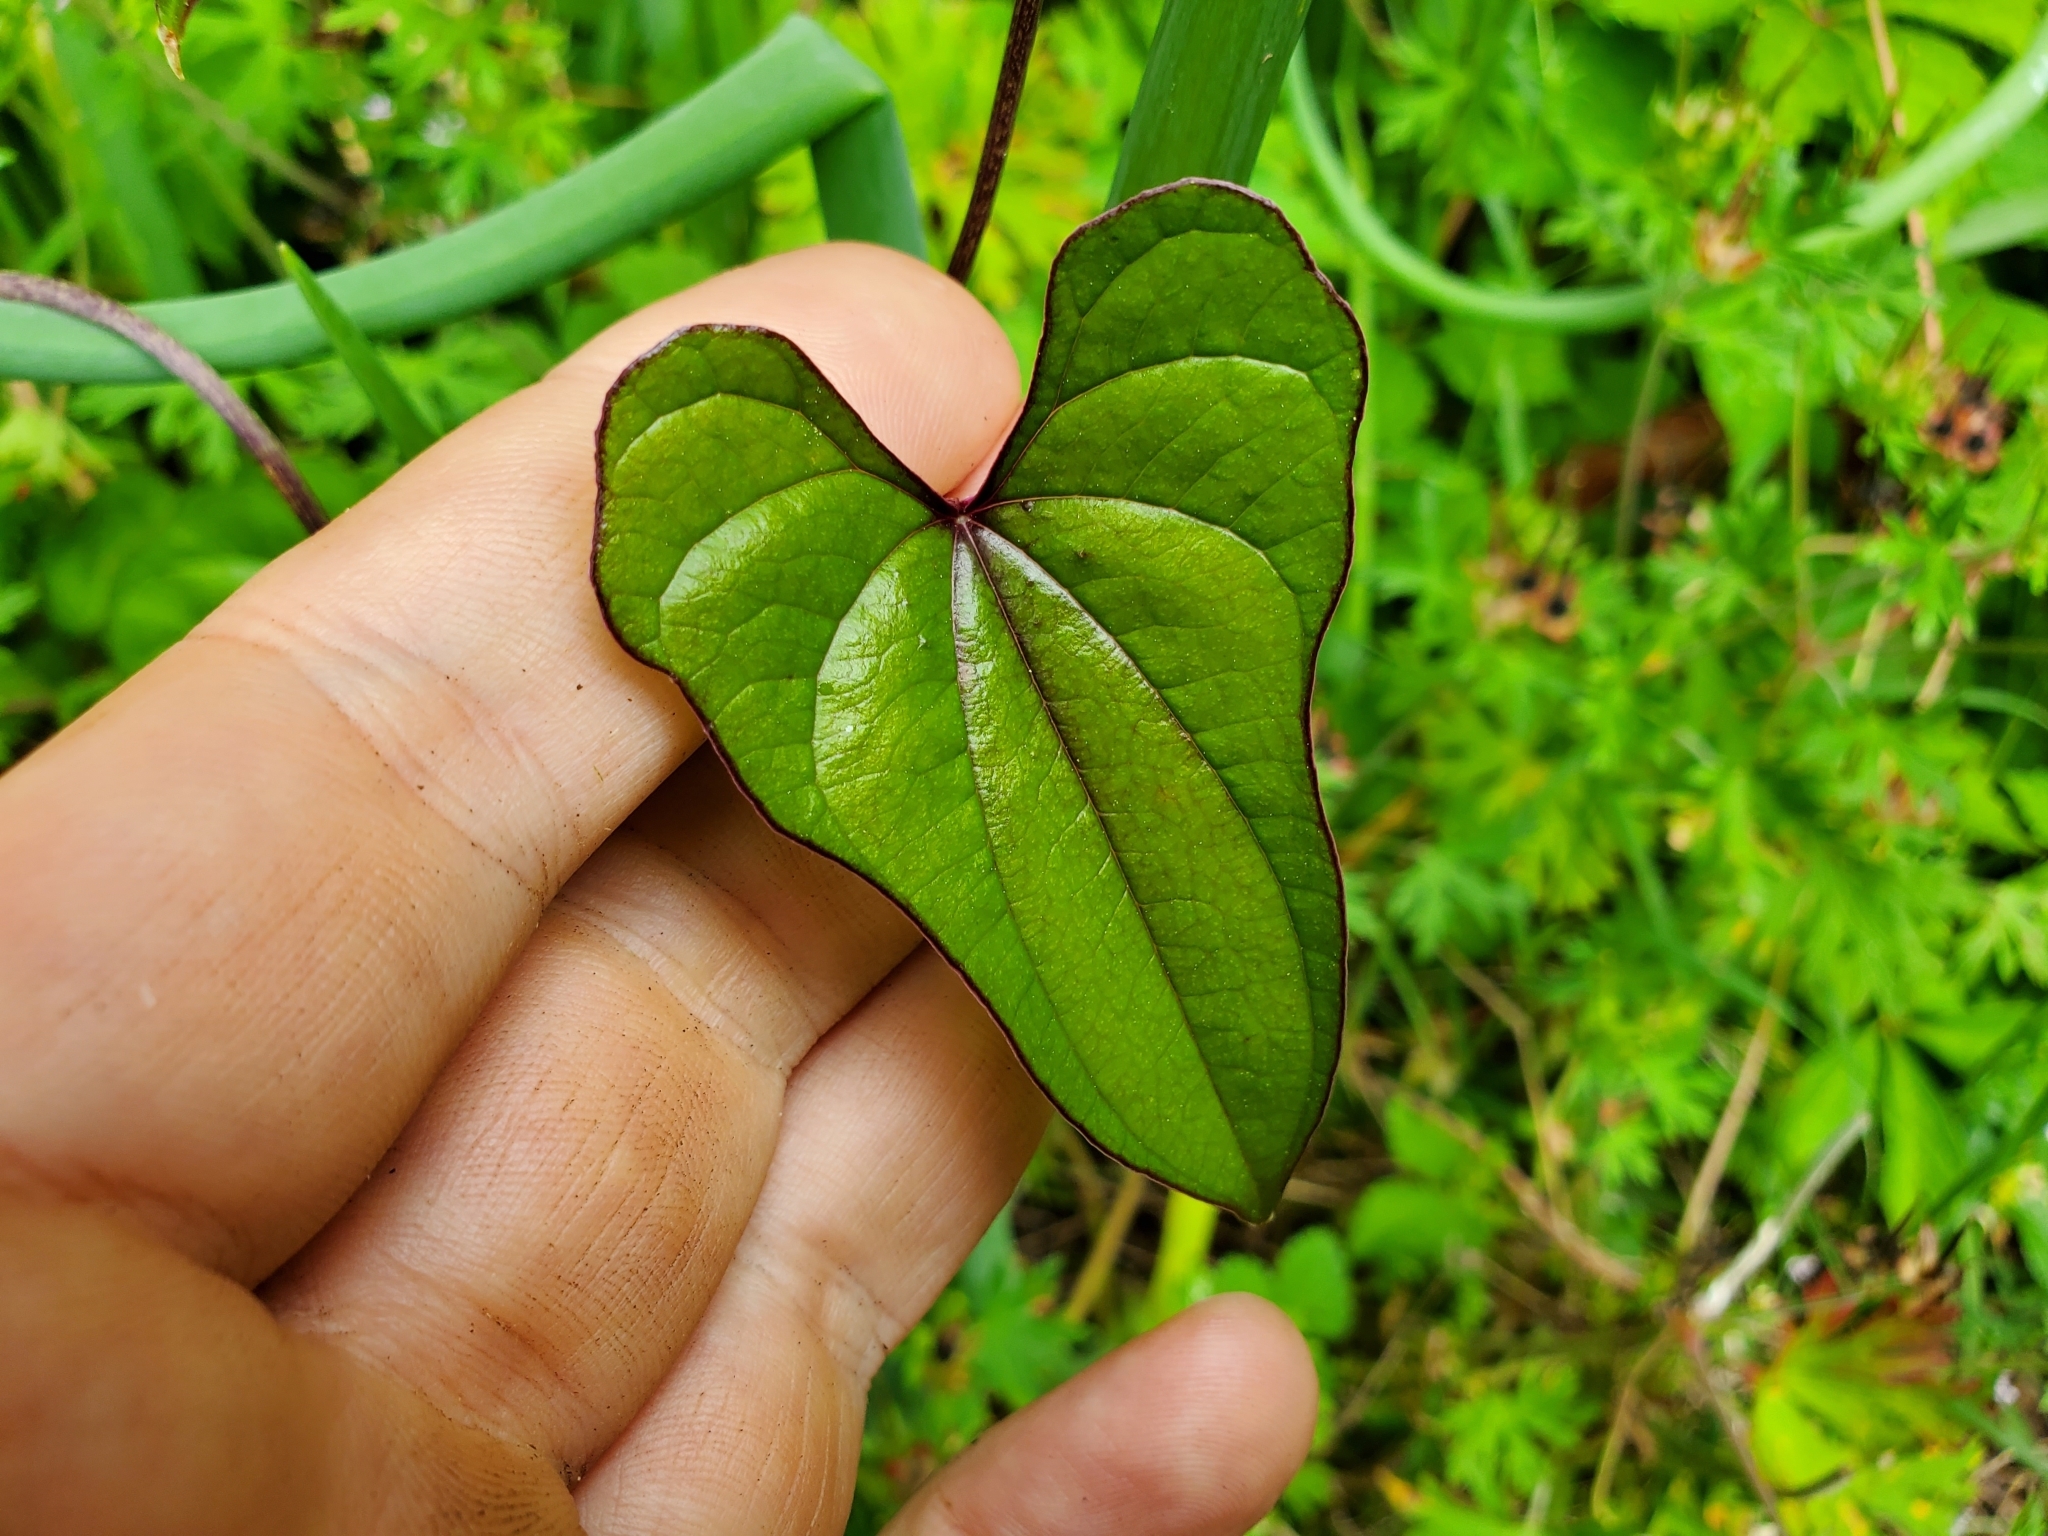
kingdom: Plantae
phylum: Tracheophyta
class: Liliopsida
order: Dioscoreales
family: Dioscoreaceae
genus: Dioscorea
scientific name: Dioscorea polystachya
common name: Chinese yam
